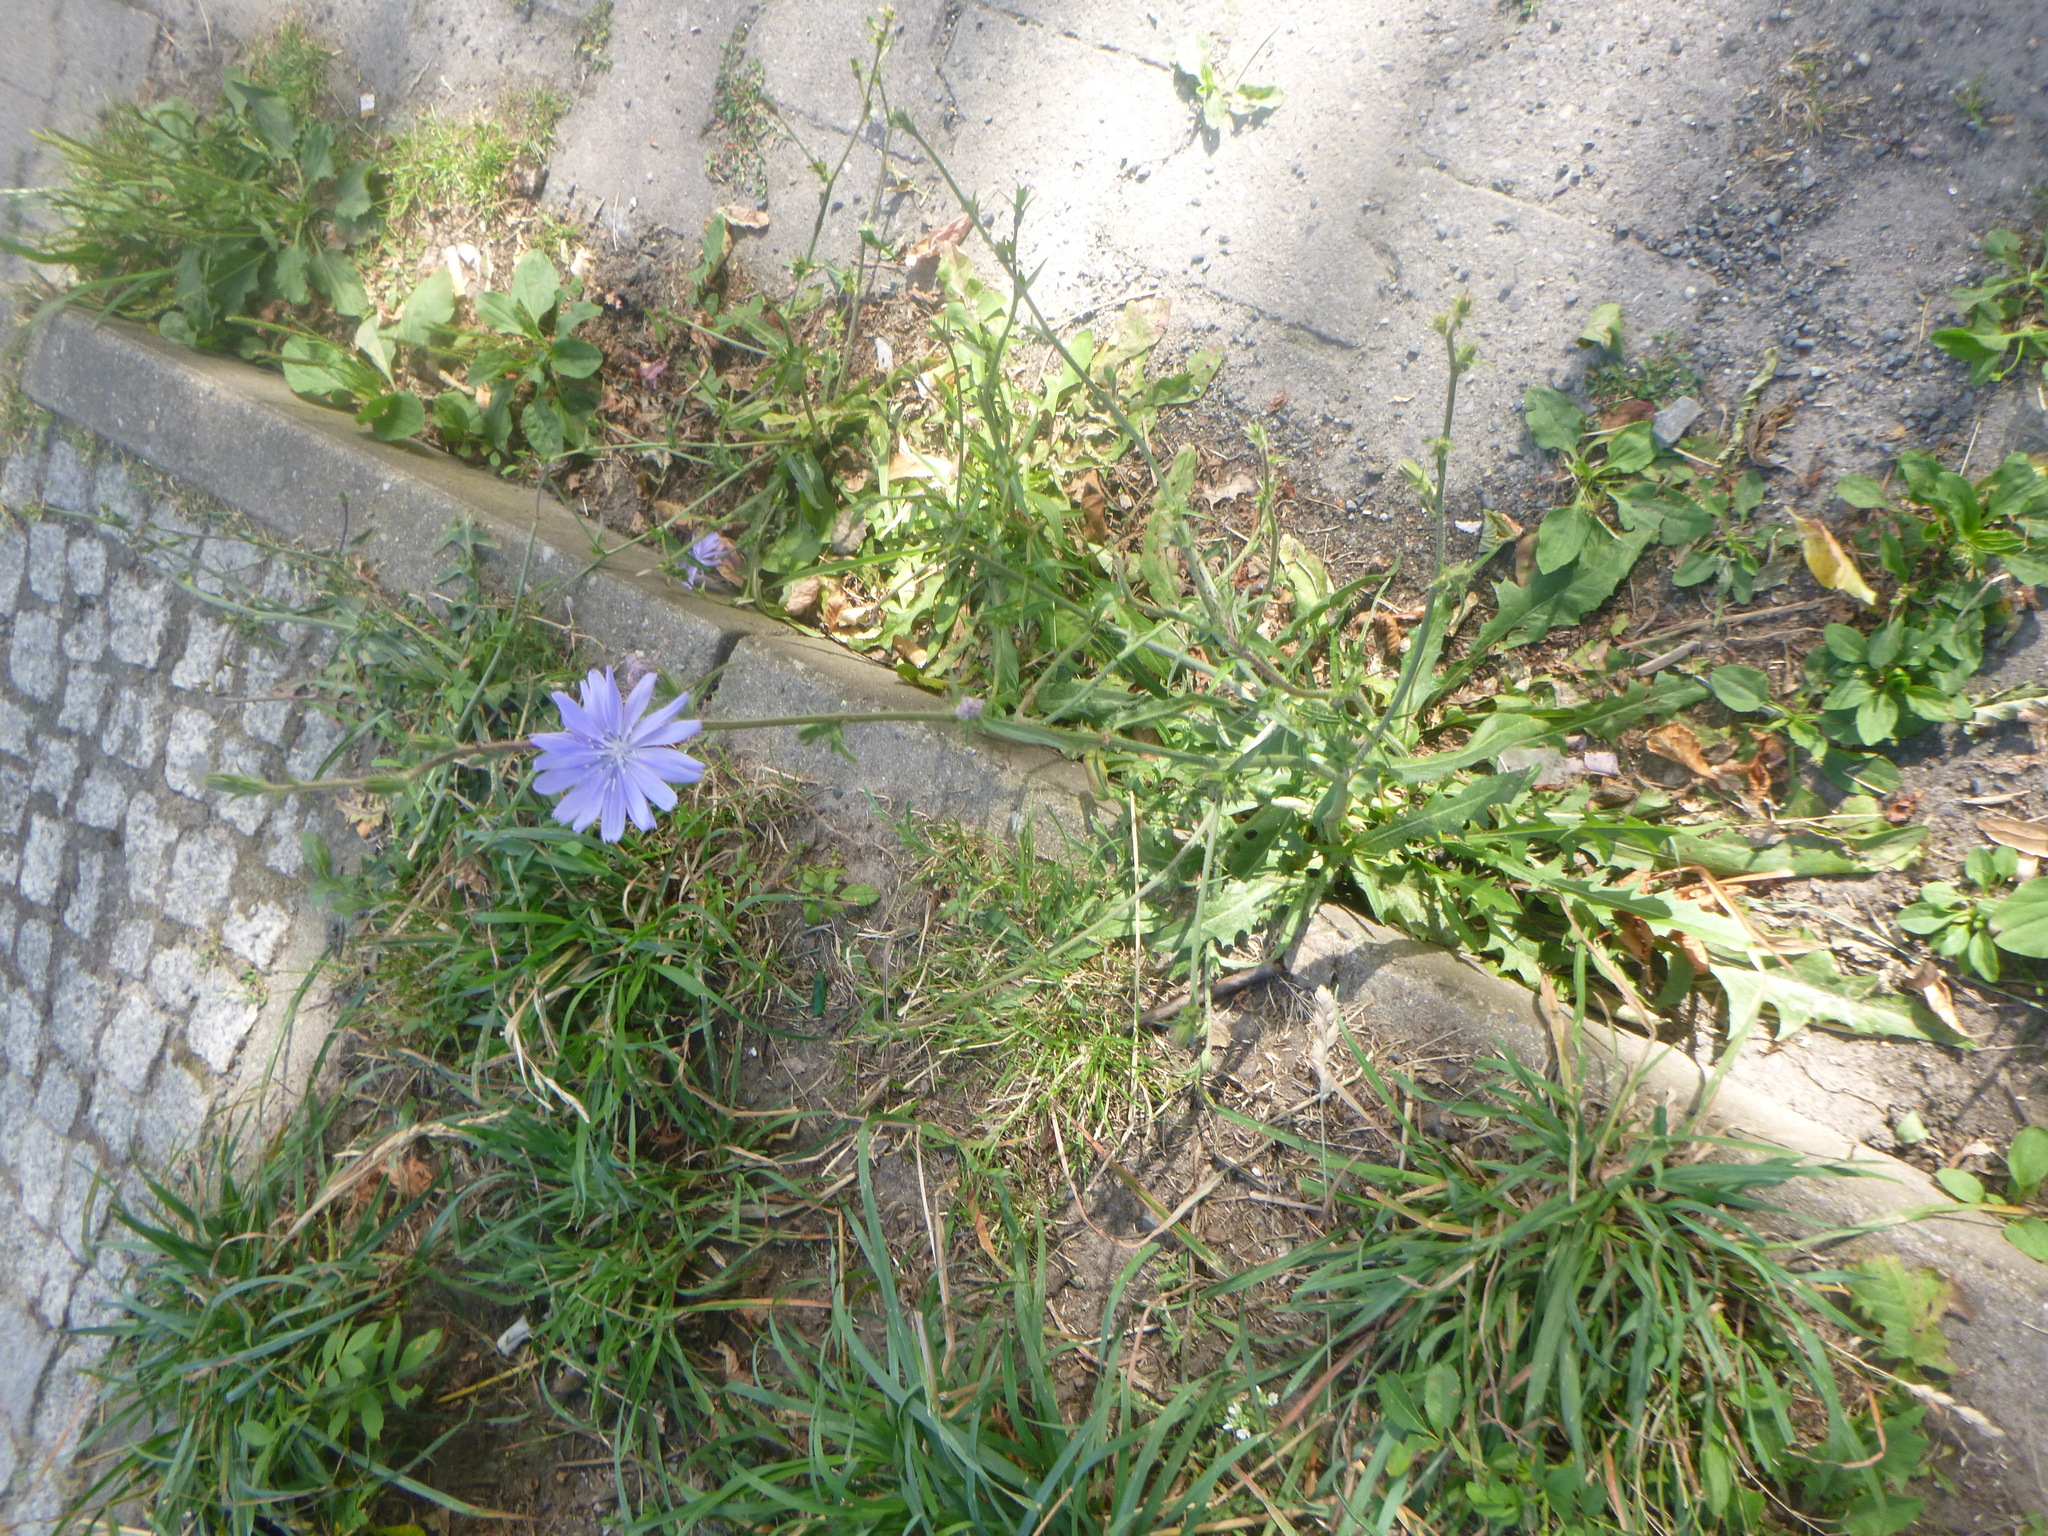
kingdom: Plantae
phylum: Tracheophyta
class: Magnoliopsida
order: Asterales
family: Asteraceae
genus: Cichorium
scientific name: Cichorium intybus
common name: Chicory
